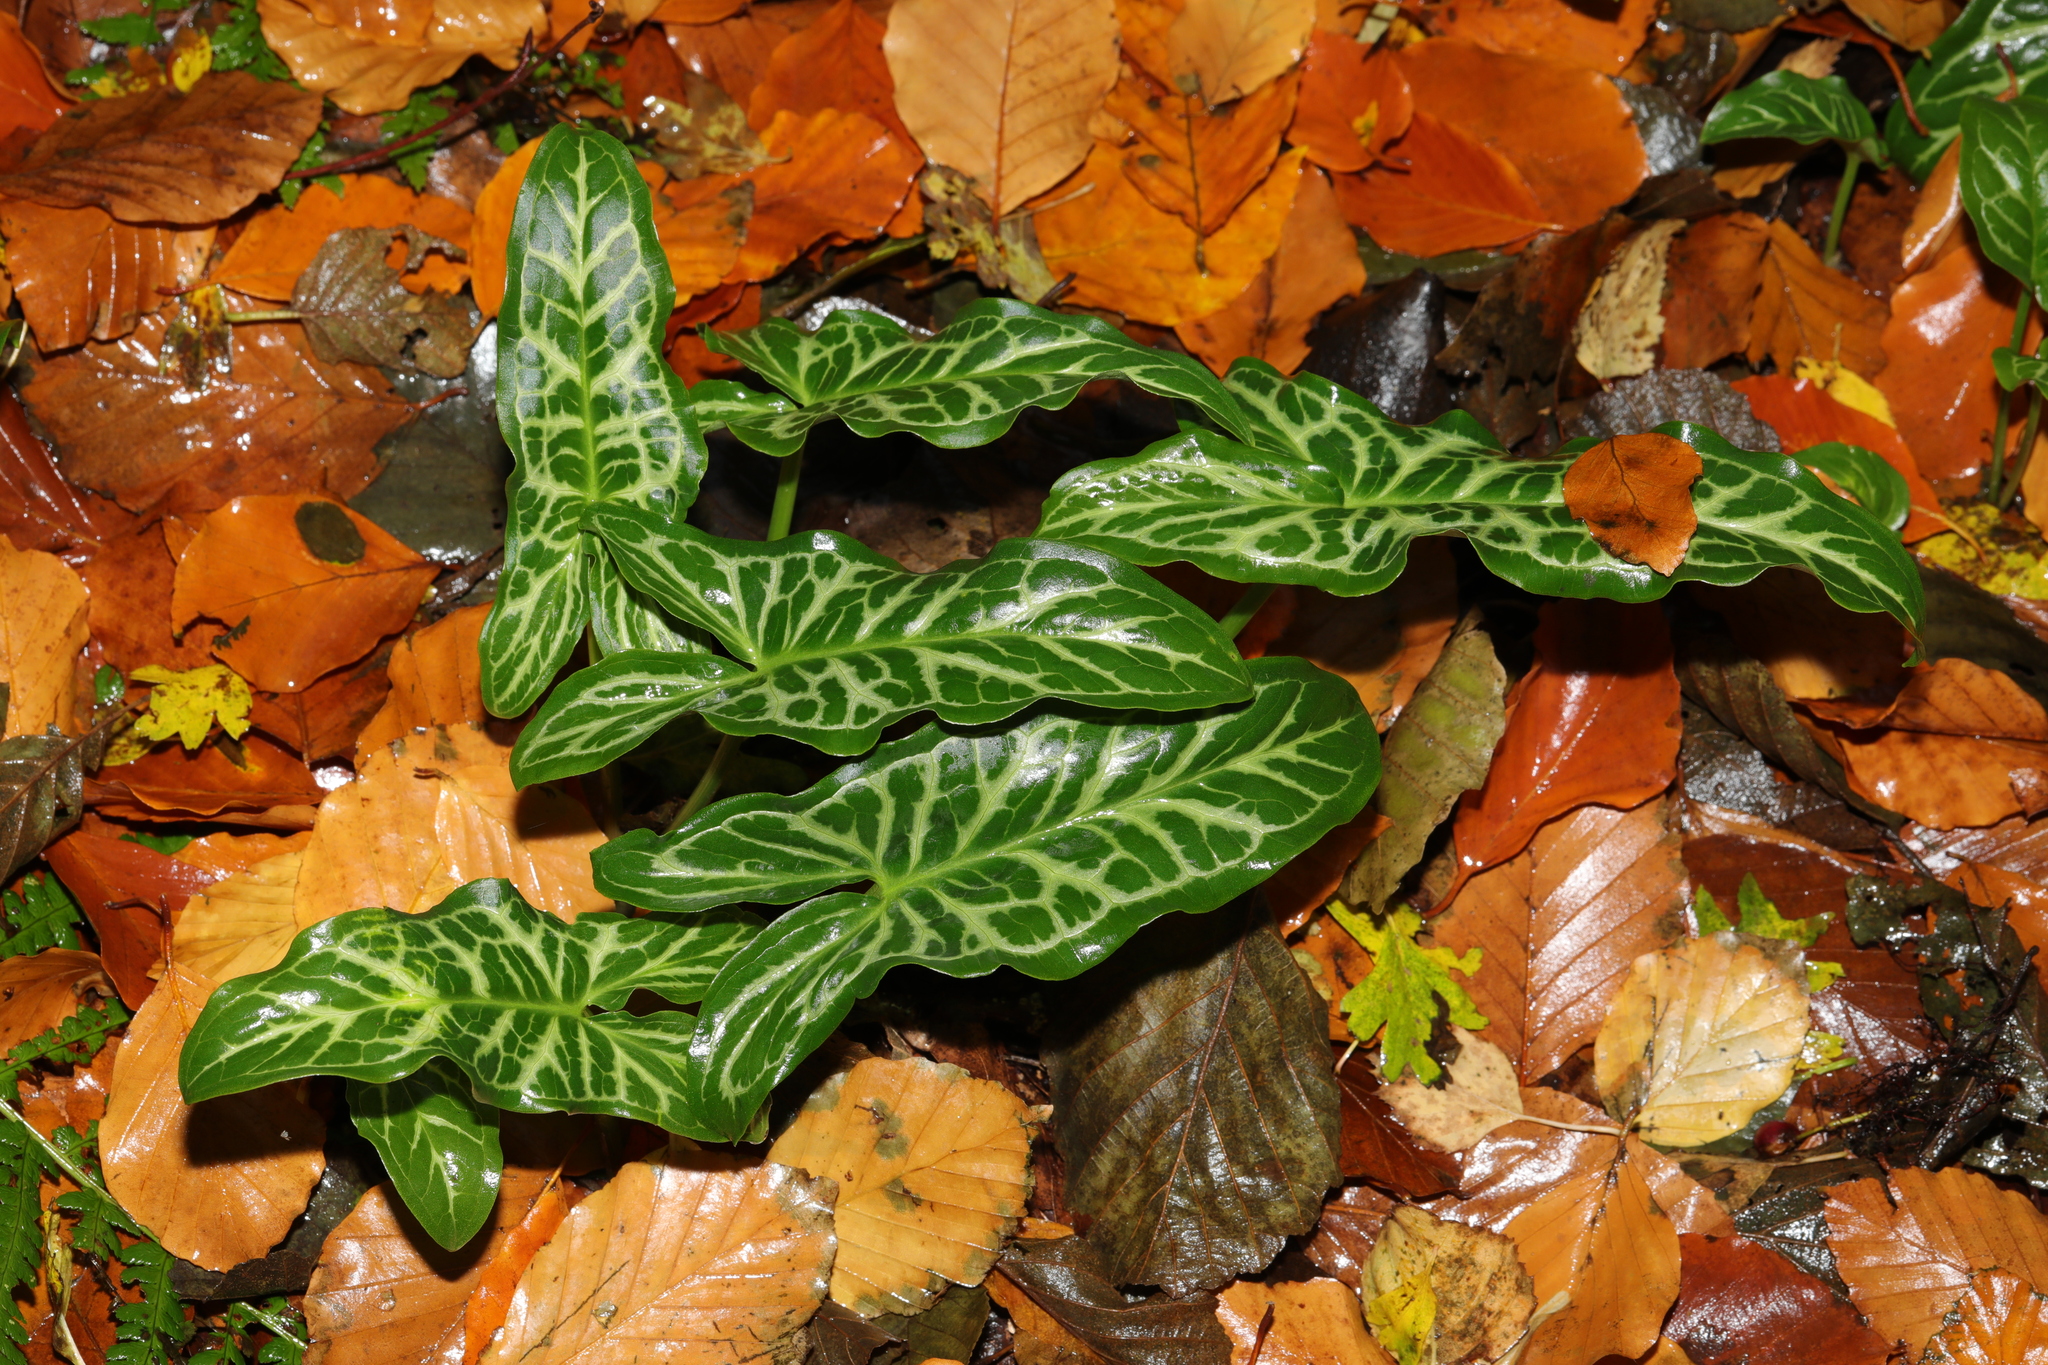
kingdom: Plantae
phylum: Tracheophyta
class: Liliopsida
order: Alismatales
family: Araceae
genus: Arum
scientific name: Arum italicum
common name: Italian lords-and-ladies
